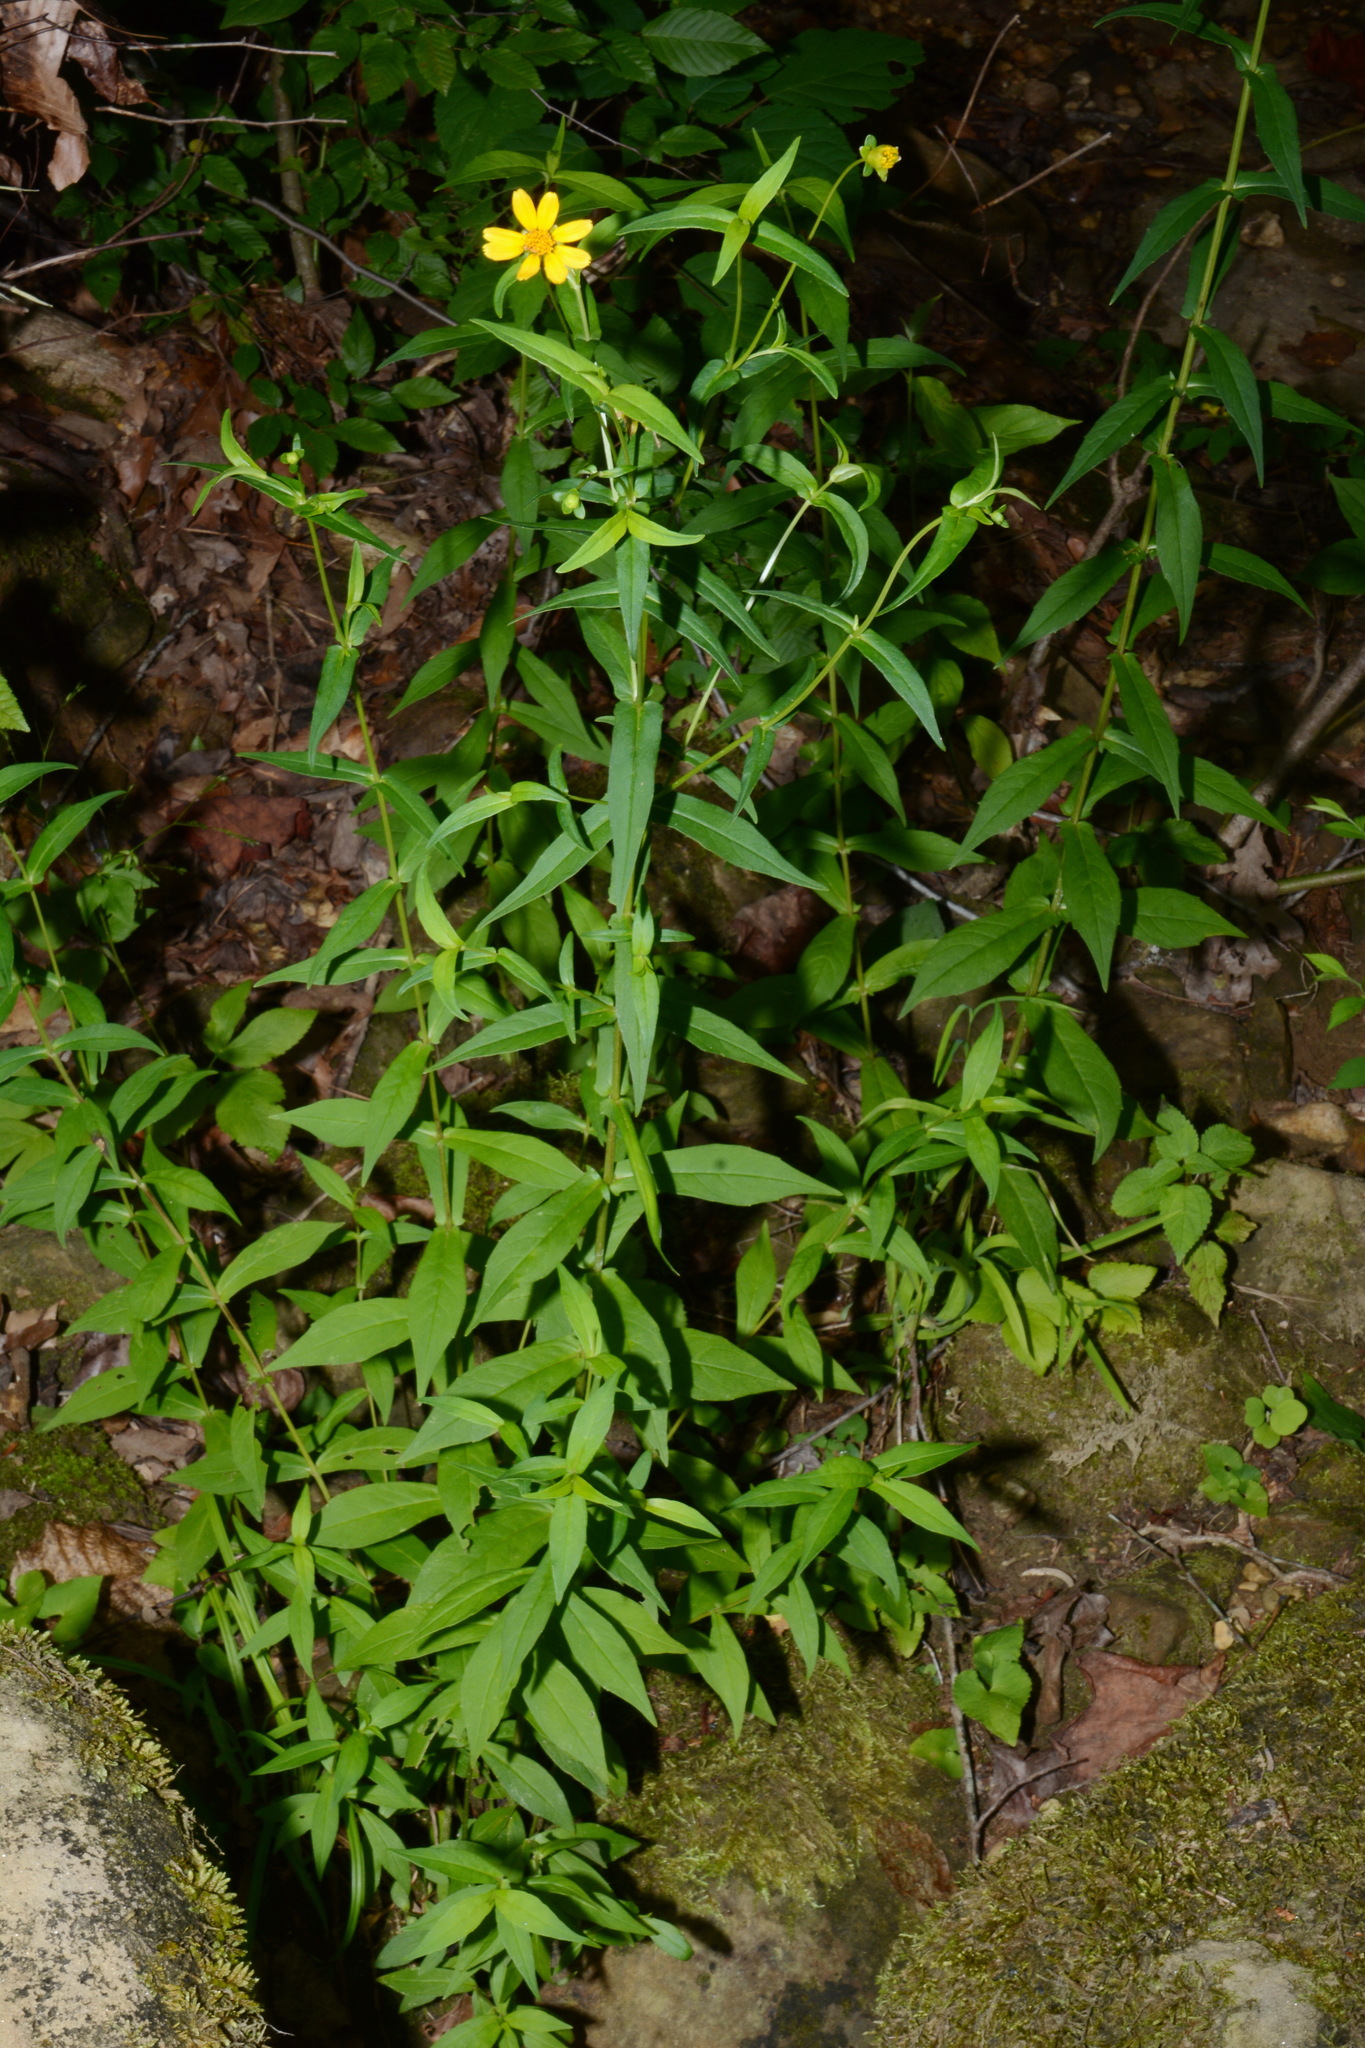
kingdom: Plantae
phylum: Tracheophyta
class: Magnoliopsida
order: Asterales
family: Asteraceae
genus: Jamesianthus
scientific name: Jamesianthus alabamensis
